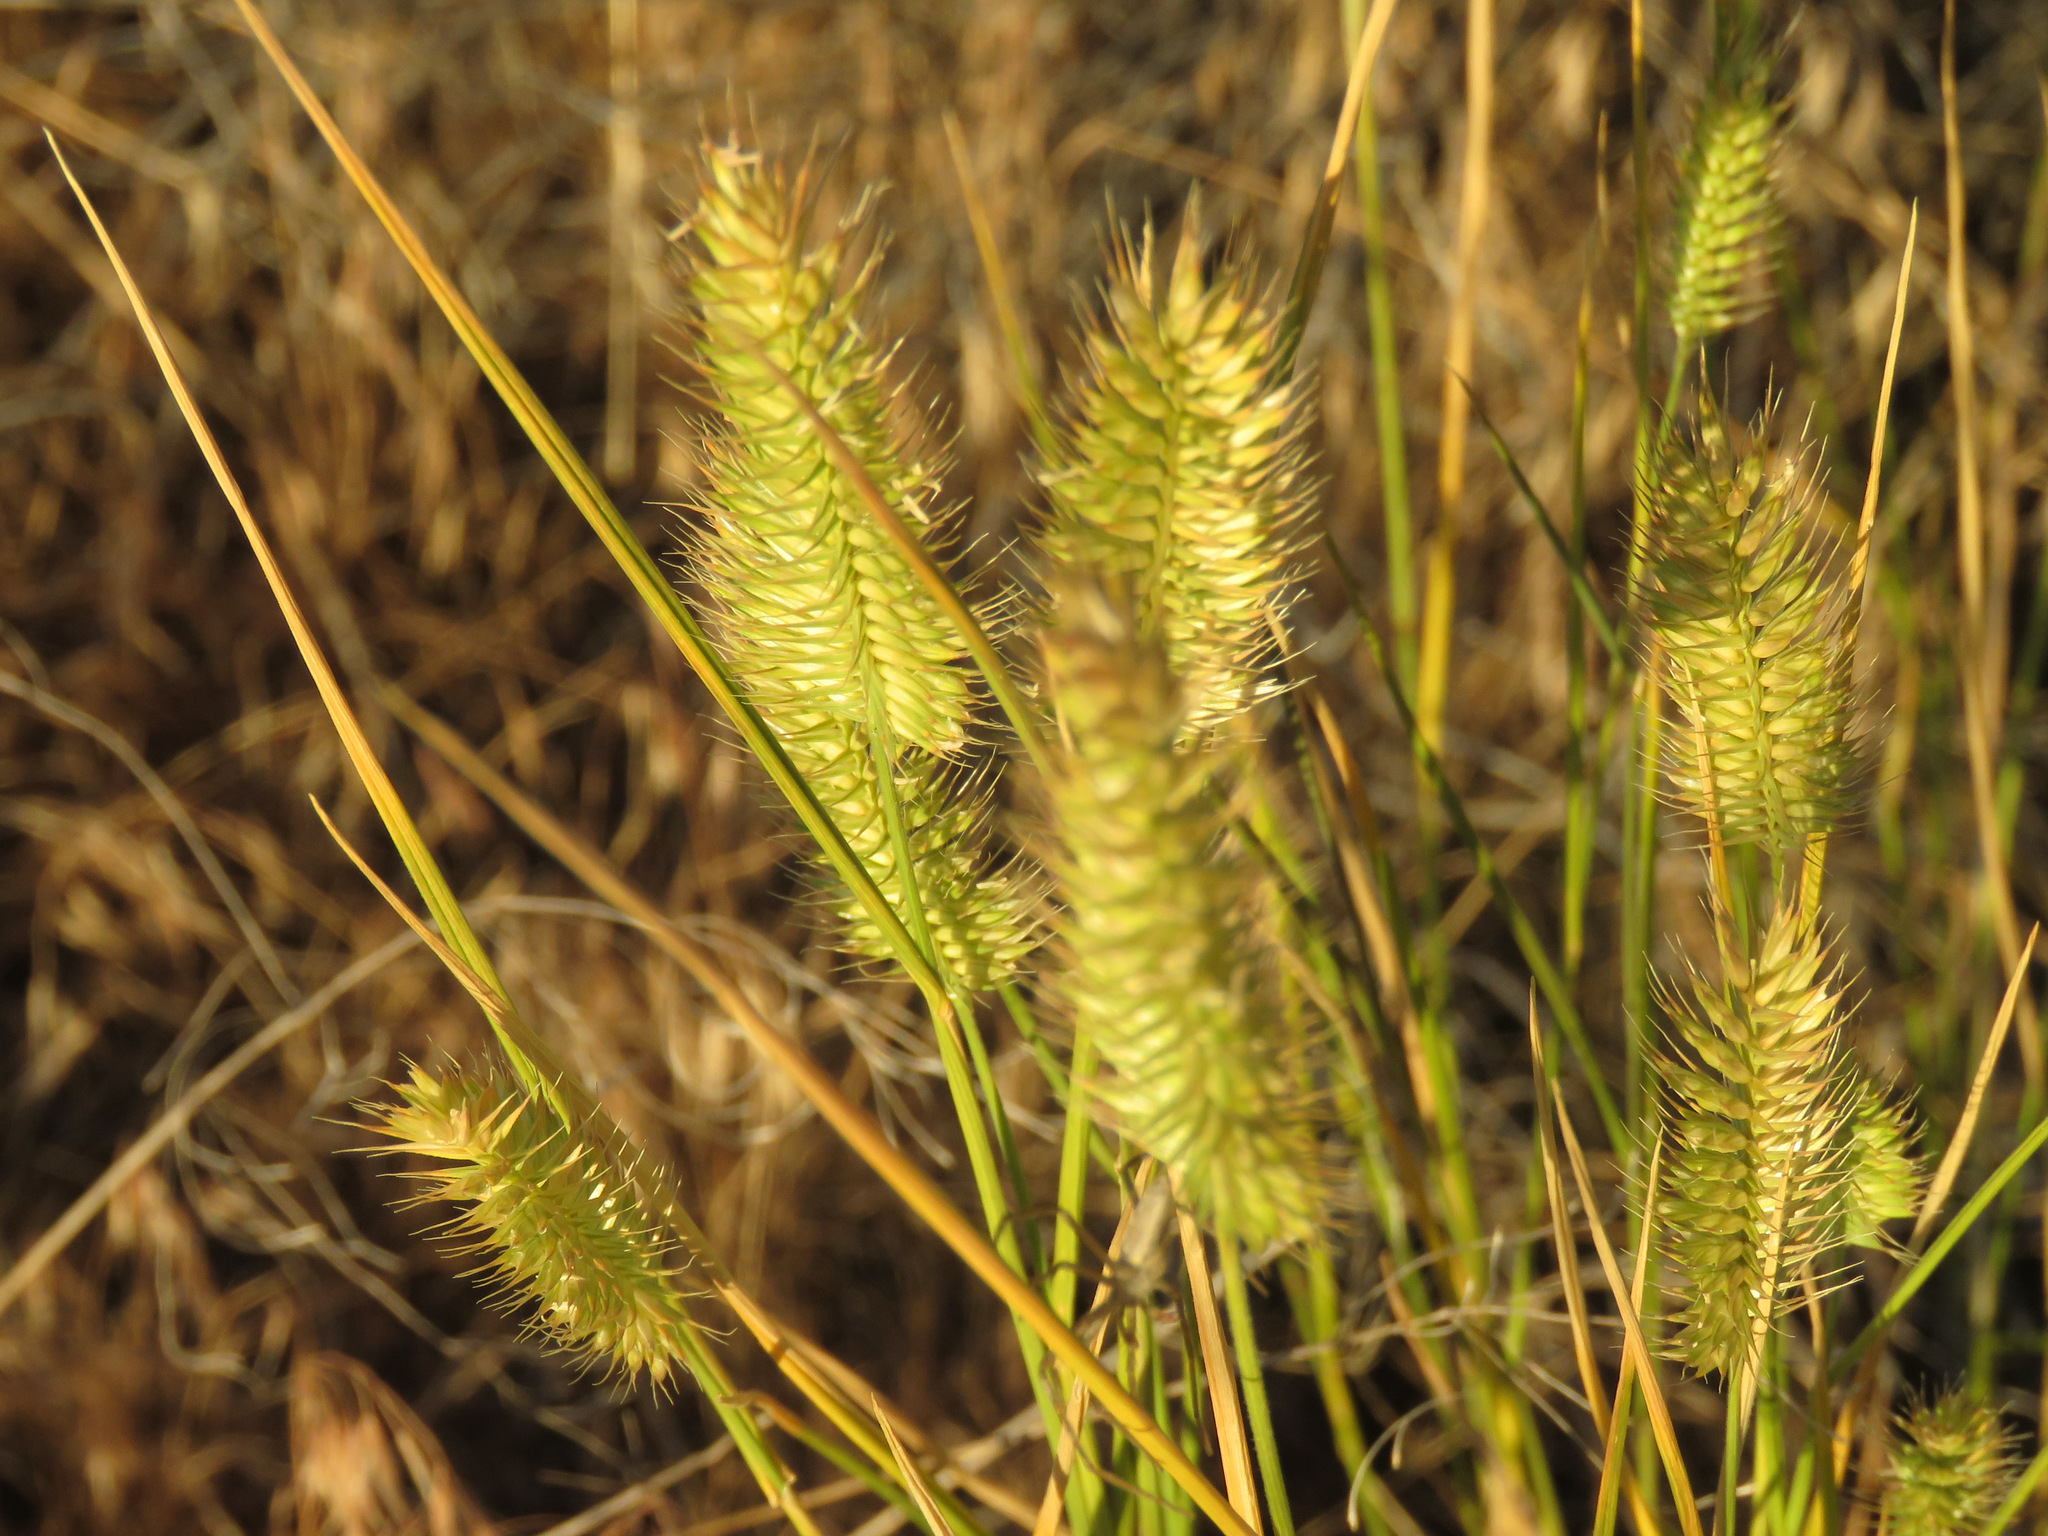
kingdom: Plantae
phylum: Tracheophyta
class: Liliopsida
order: Poales
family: Poaceae
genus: Agropyron
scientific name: Agropyron cristatum
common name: Crested wheatgrass
